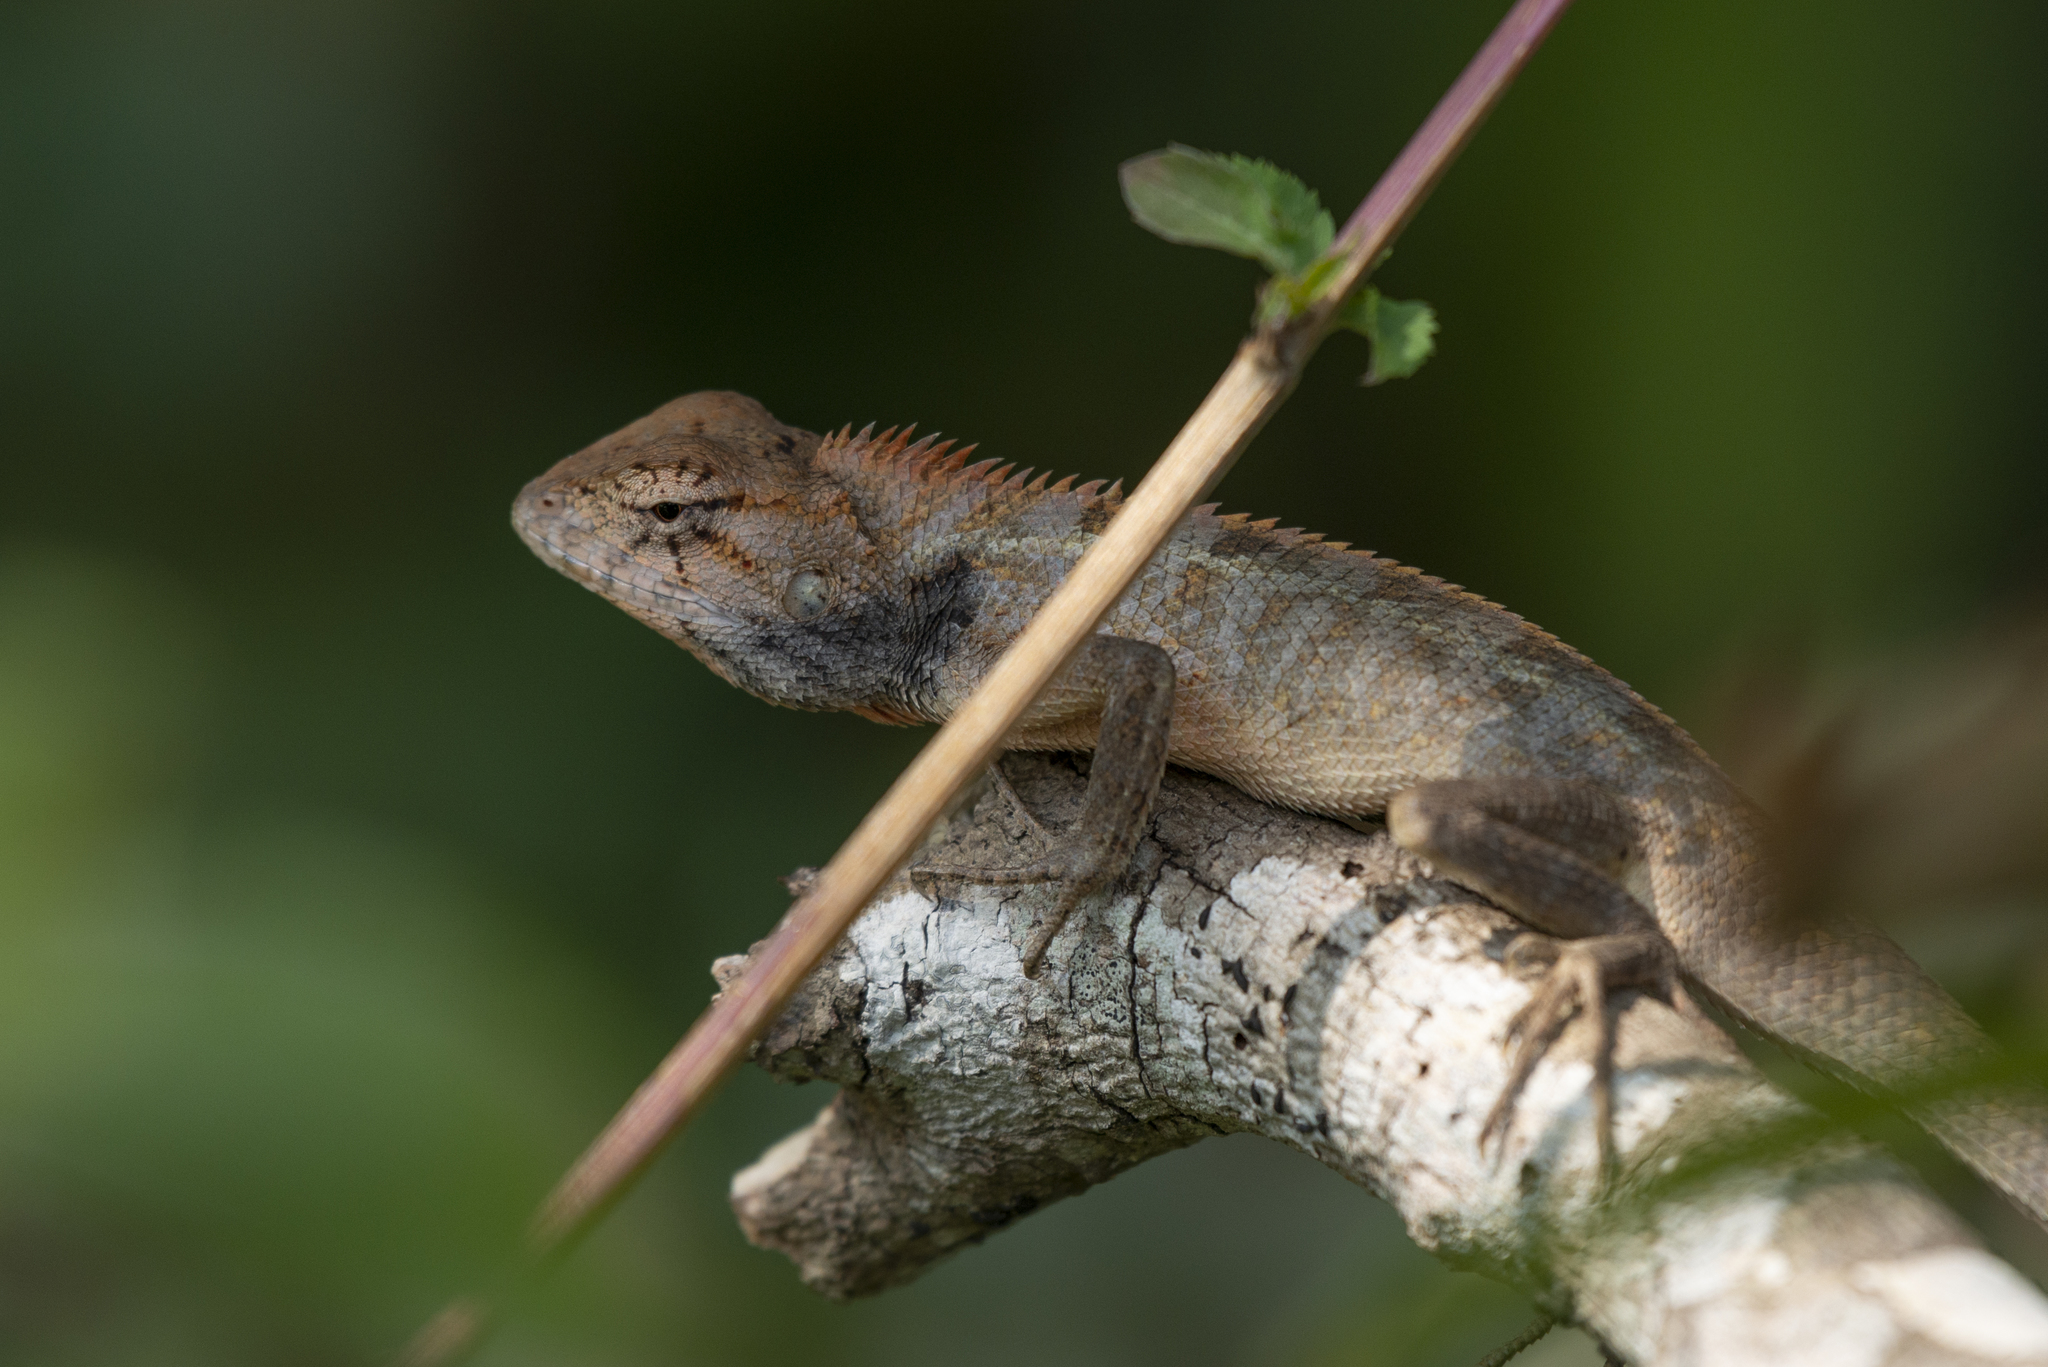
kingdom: Animalia
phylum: Chordata
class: Squamata
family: Agamidae
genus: Calotes
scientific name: Calotes versicolor
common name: Oriental garden lizard
